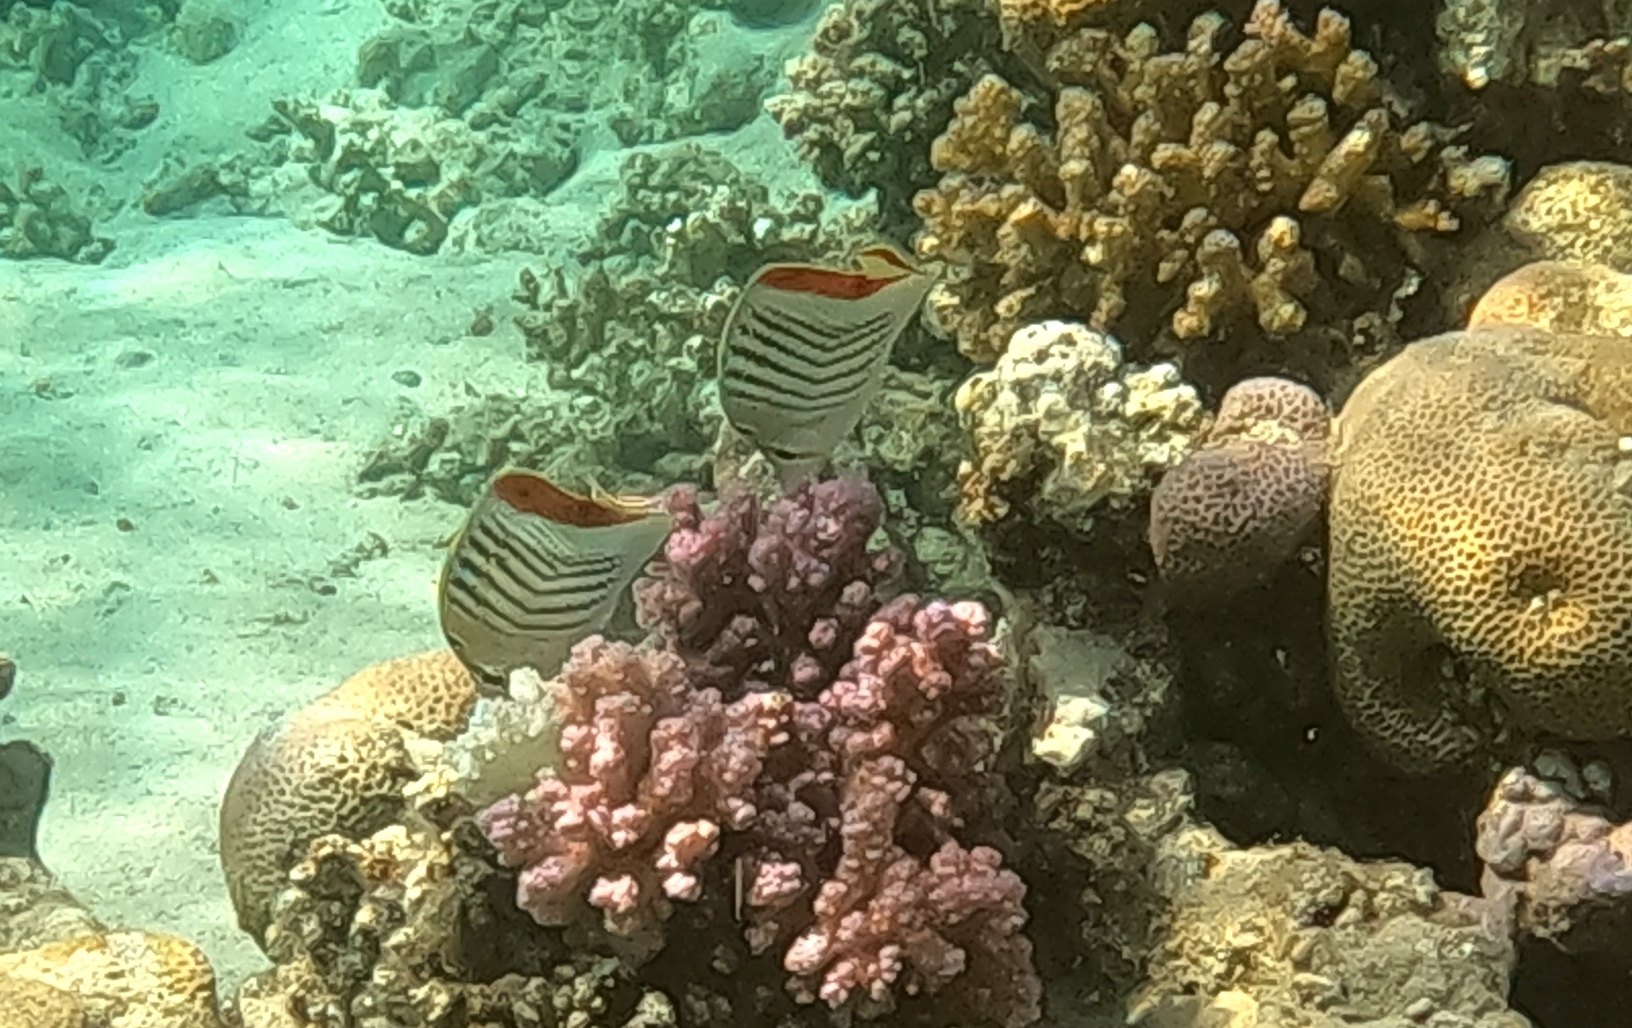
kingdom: Animalia
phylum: Chordata
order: Perciformes
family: Chaetodontidae
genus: Chaetodon
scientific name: Chaetodon paucifasciatus
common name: Crown butterflyfish
